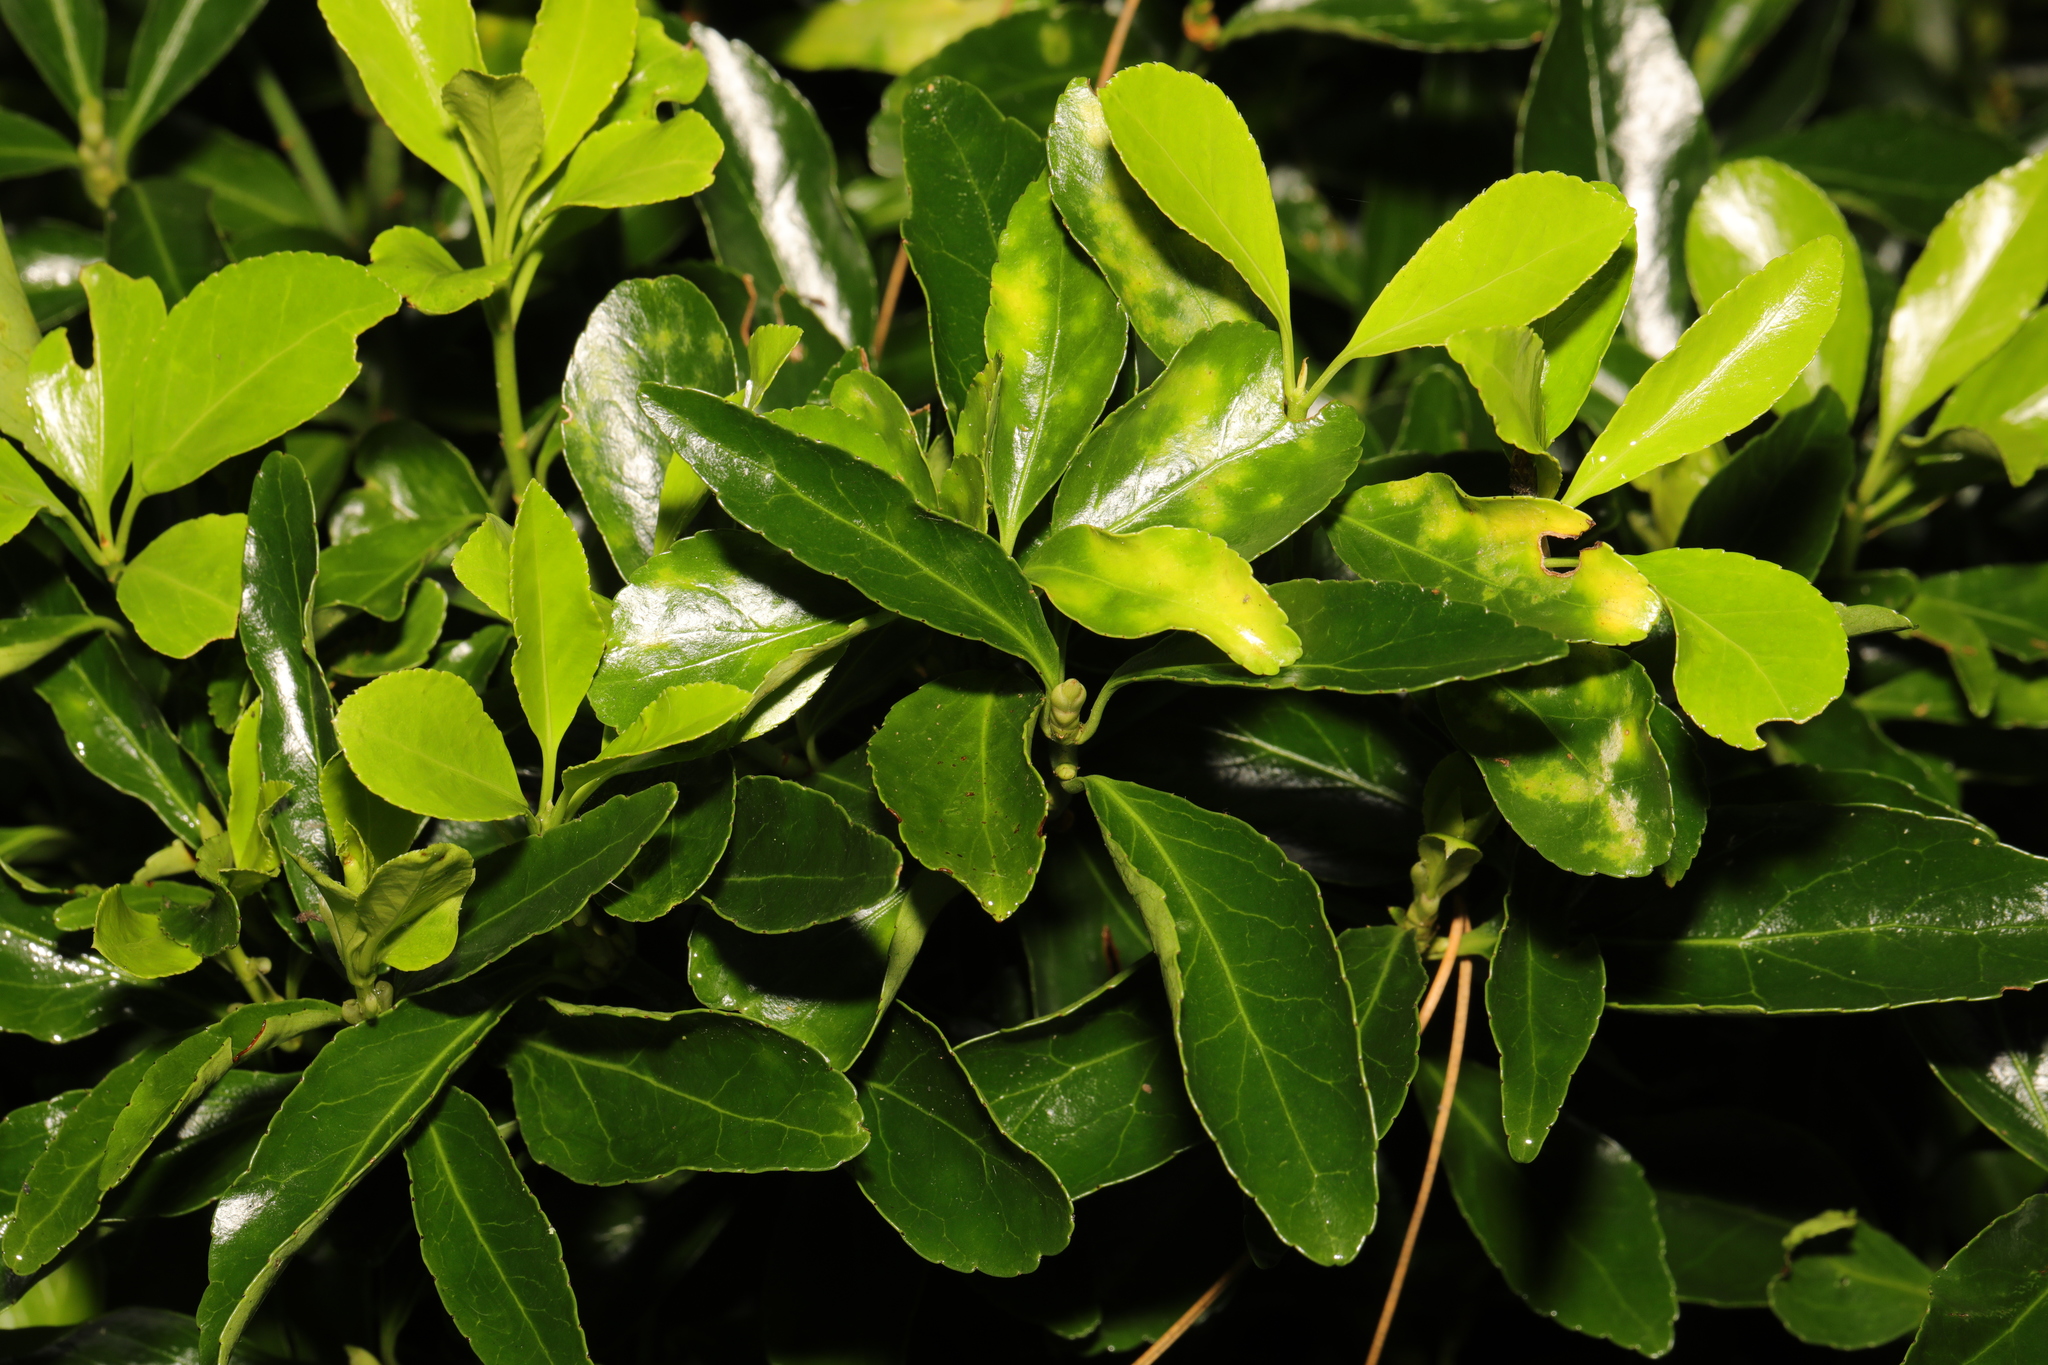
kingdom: Plantae
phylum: Tracheophyta
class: Magnoliopsida
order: Celastrales
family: Celastraceae
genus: Euonymus
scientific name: Euonymus japonicus
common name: Japanese spindletree
